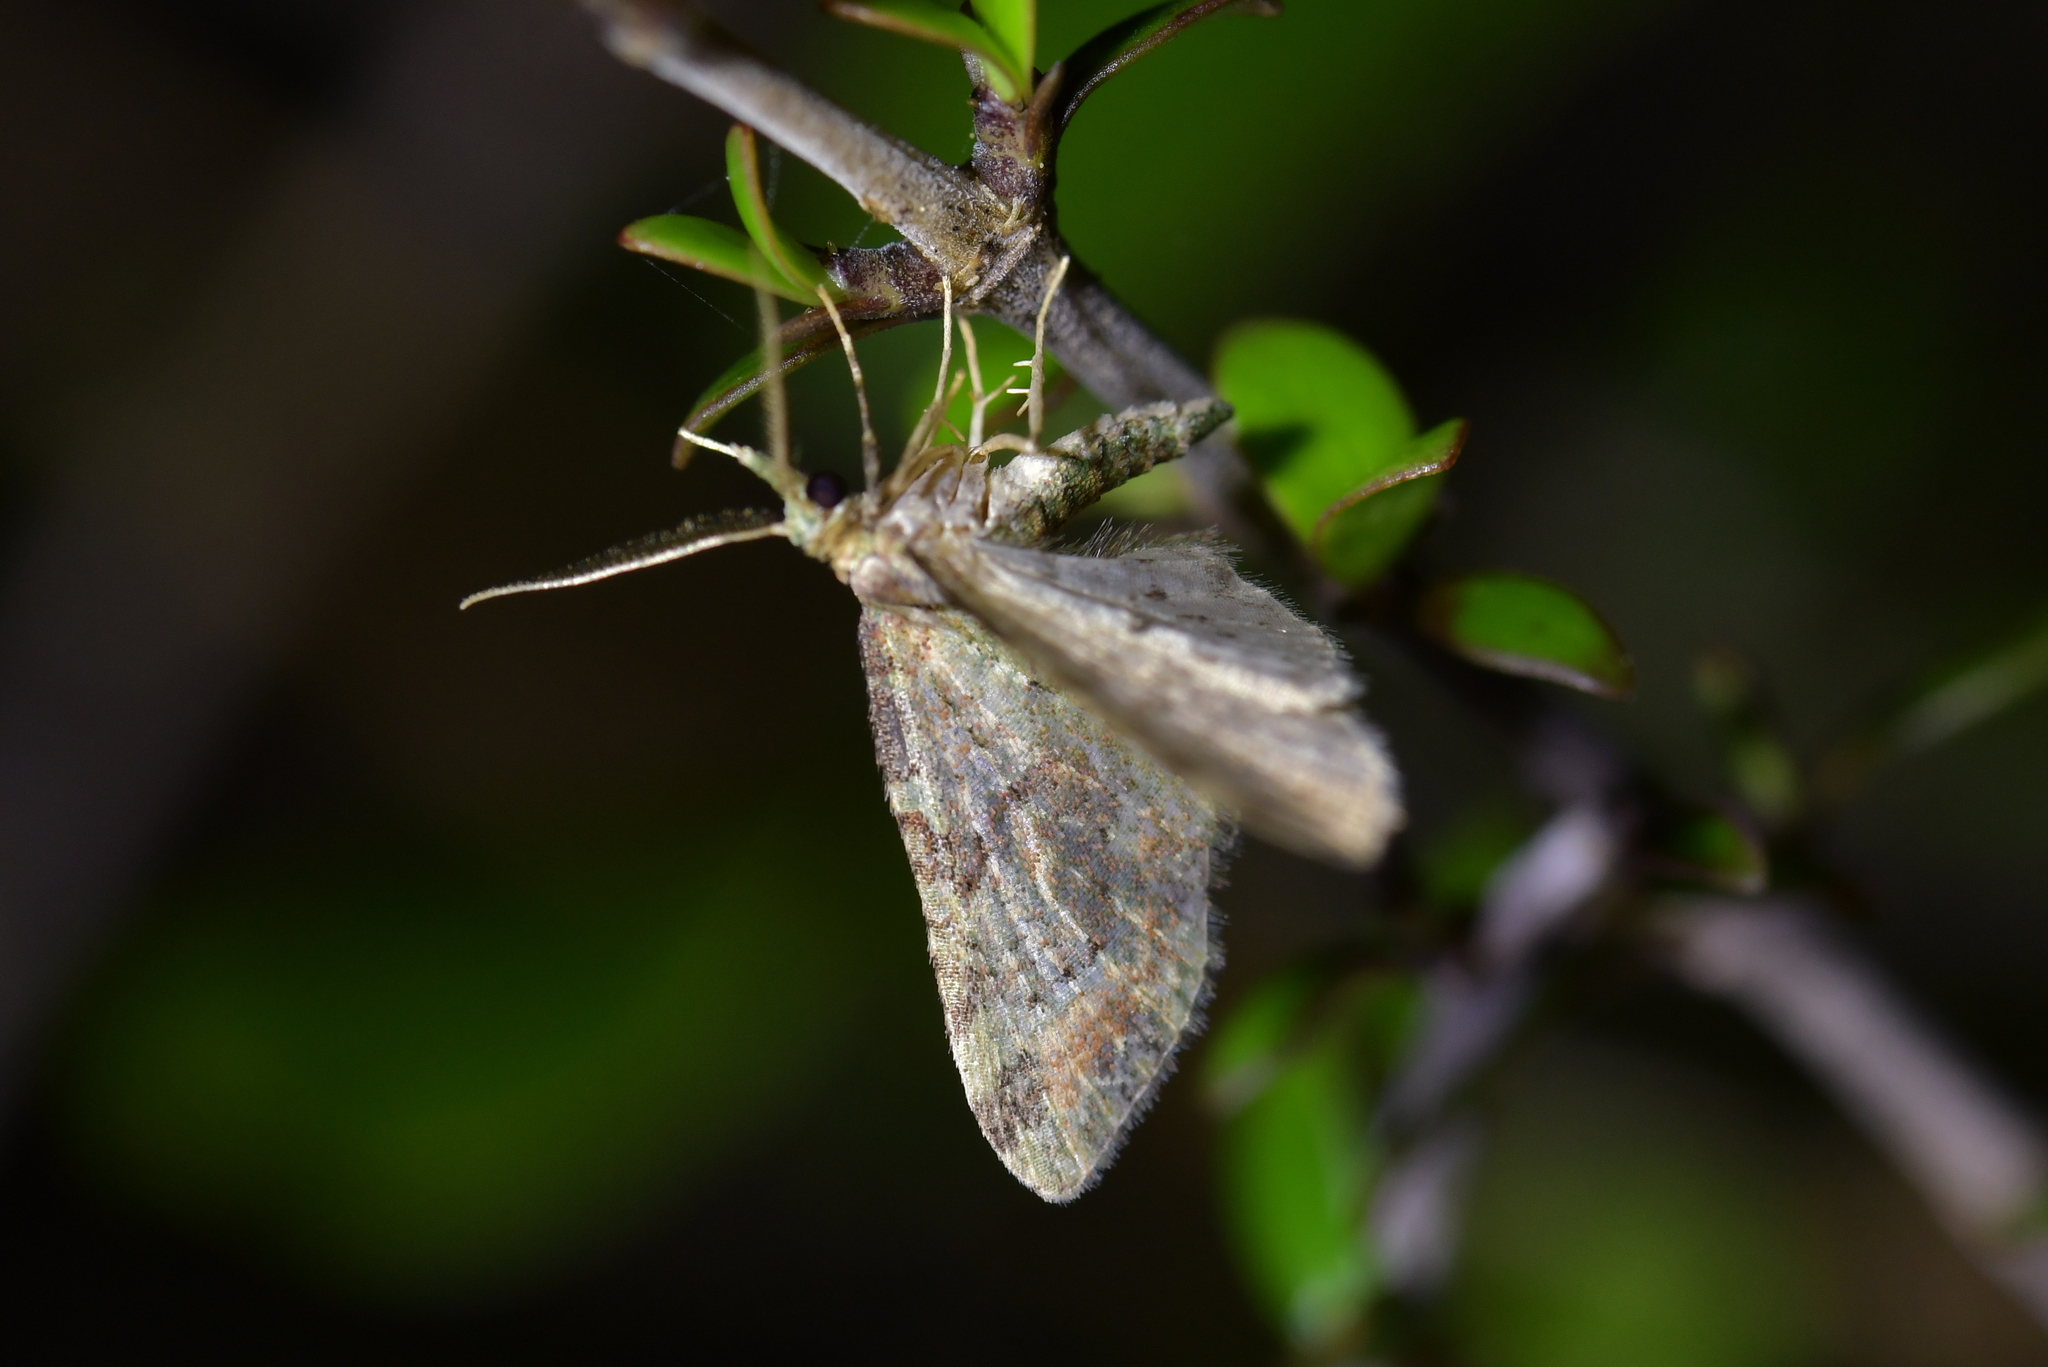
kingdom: Animalia
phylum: Arthropoda
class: Insecta
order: Lepidoptera
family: Geometridae
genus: Pasiphila
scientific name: Pasiphila plinthina
